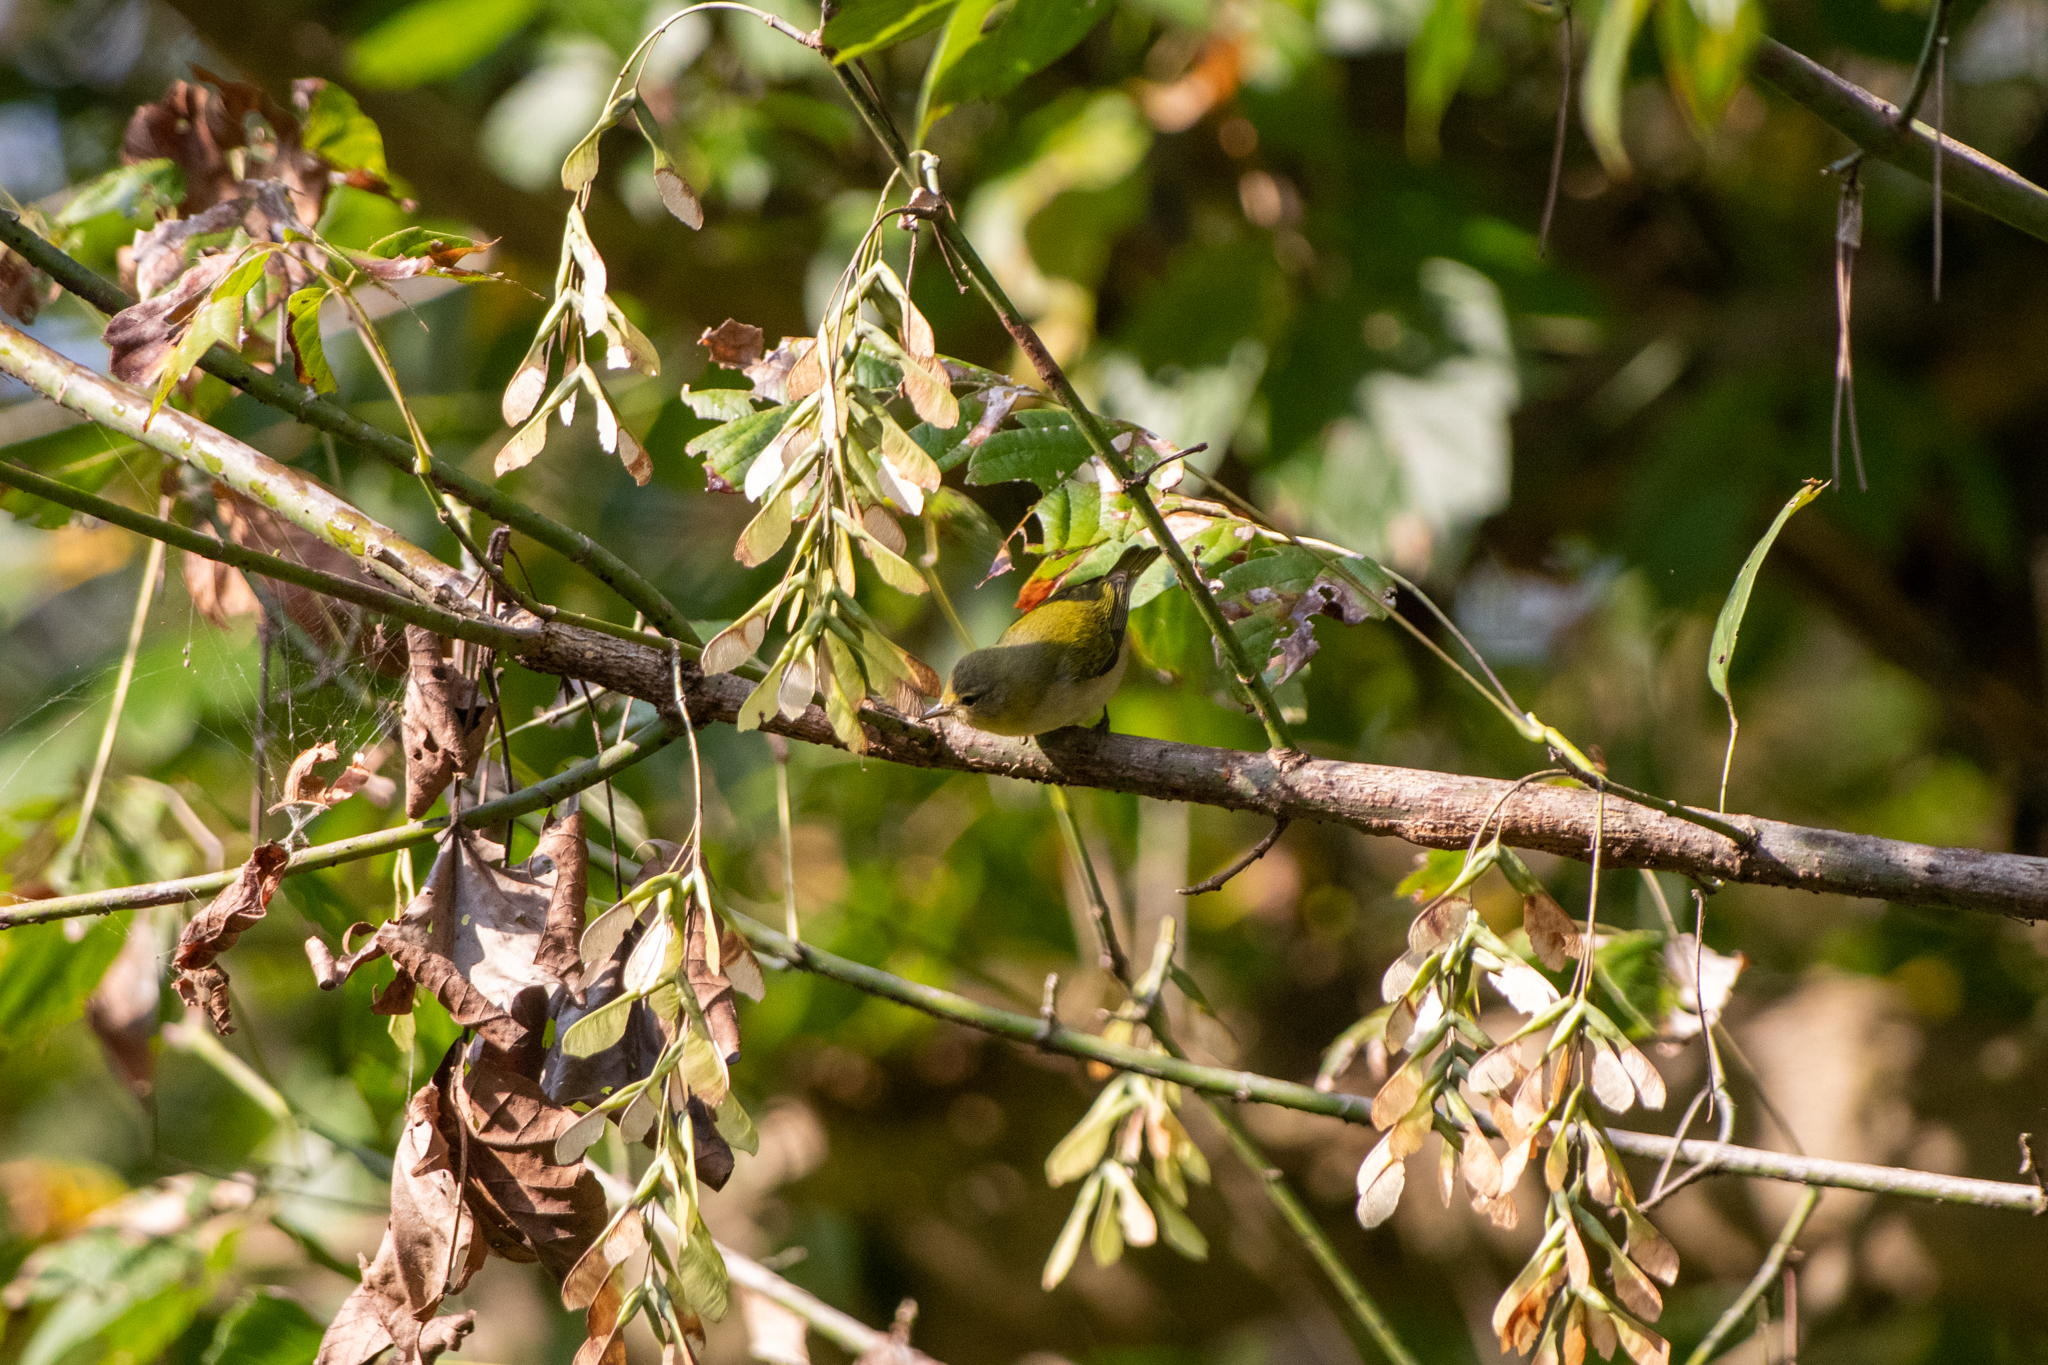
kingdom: Animalia
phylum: Chordata
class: Aves
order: Passeriformes
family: Parulidae
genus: Leiothlypis
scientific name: Leiothlypis peregrina
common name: Tennessee warbler
